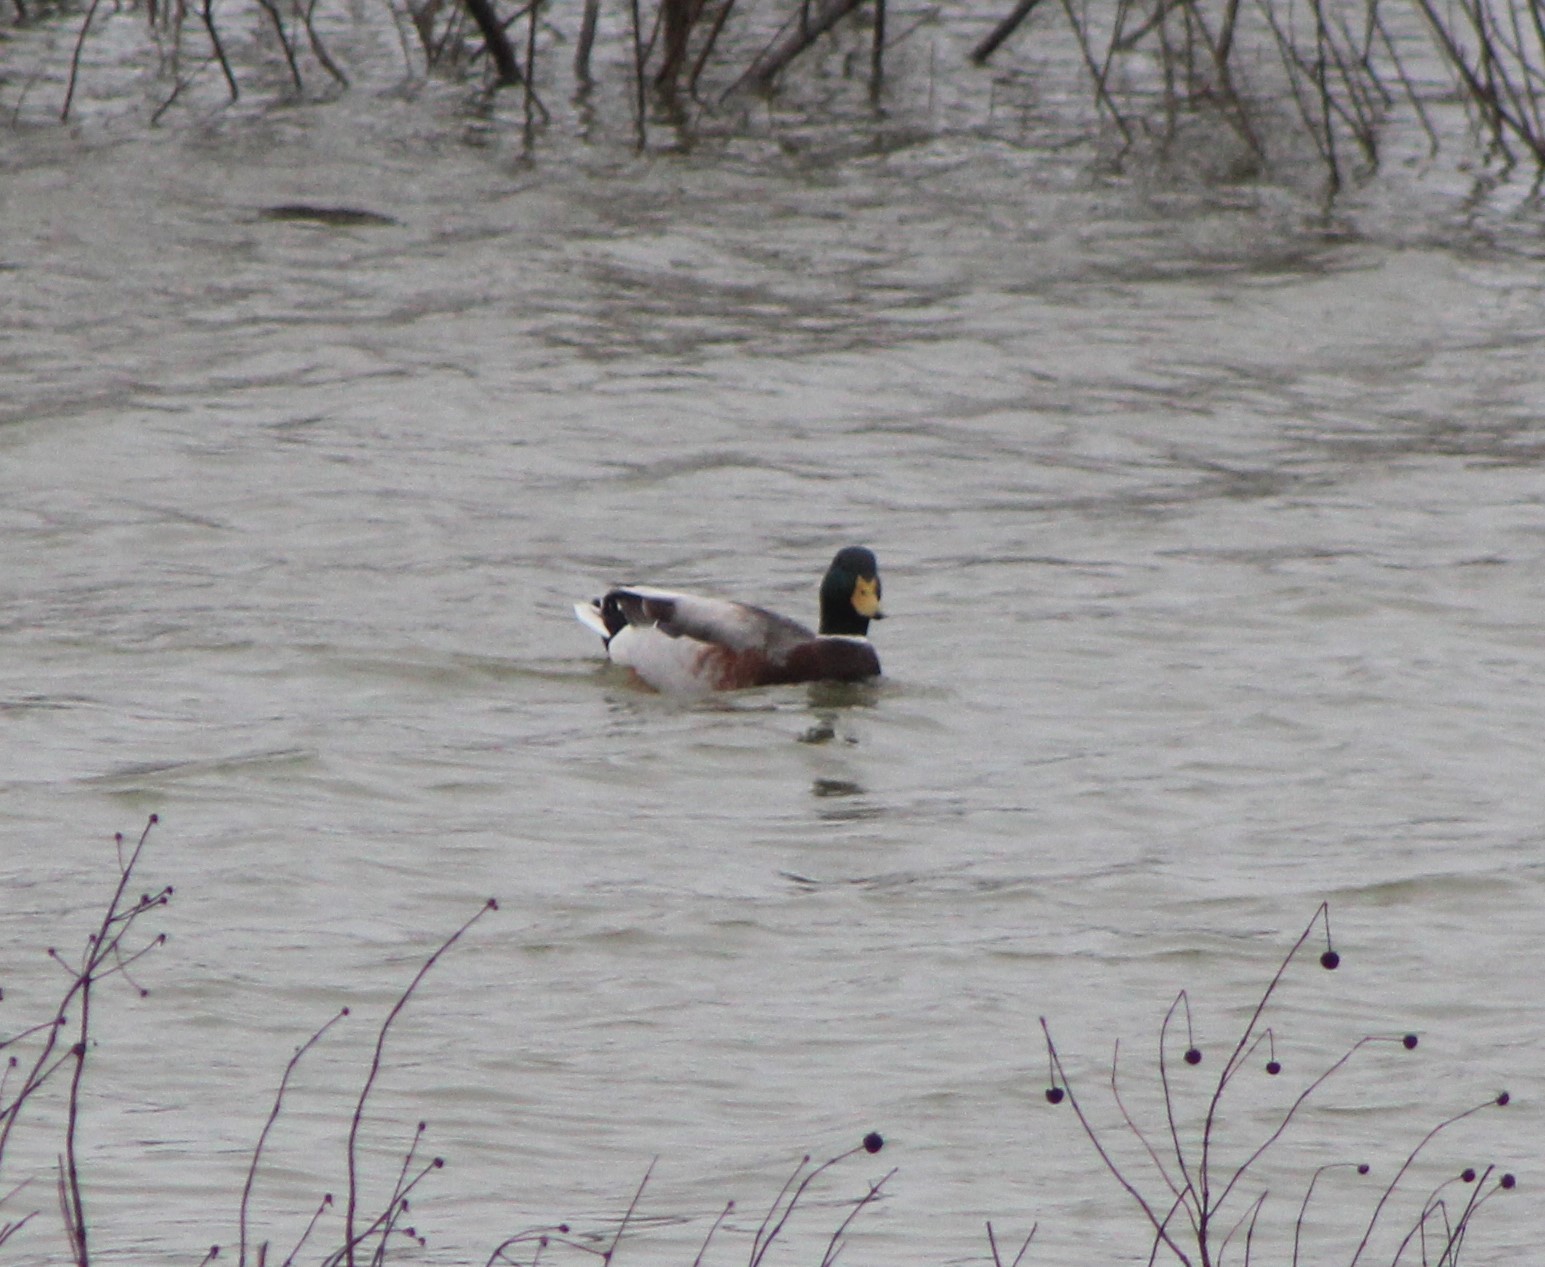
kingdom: Animalia
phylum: Chordata
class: Aves
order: Anseriformes
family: Anatidae
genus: Anas
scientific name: Anas platyrhynchos
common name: Mallard
